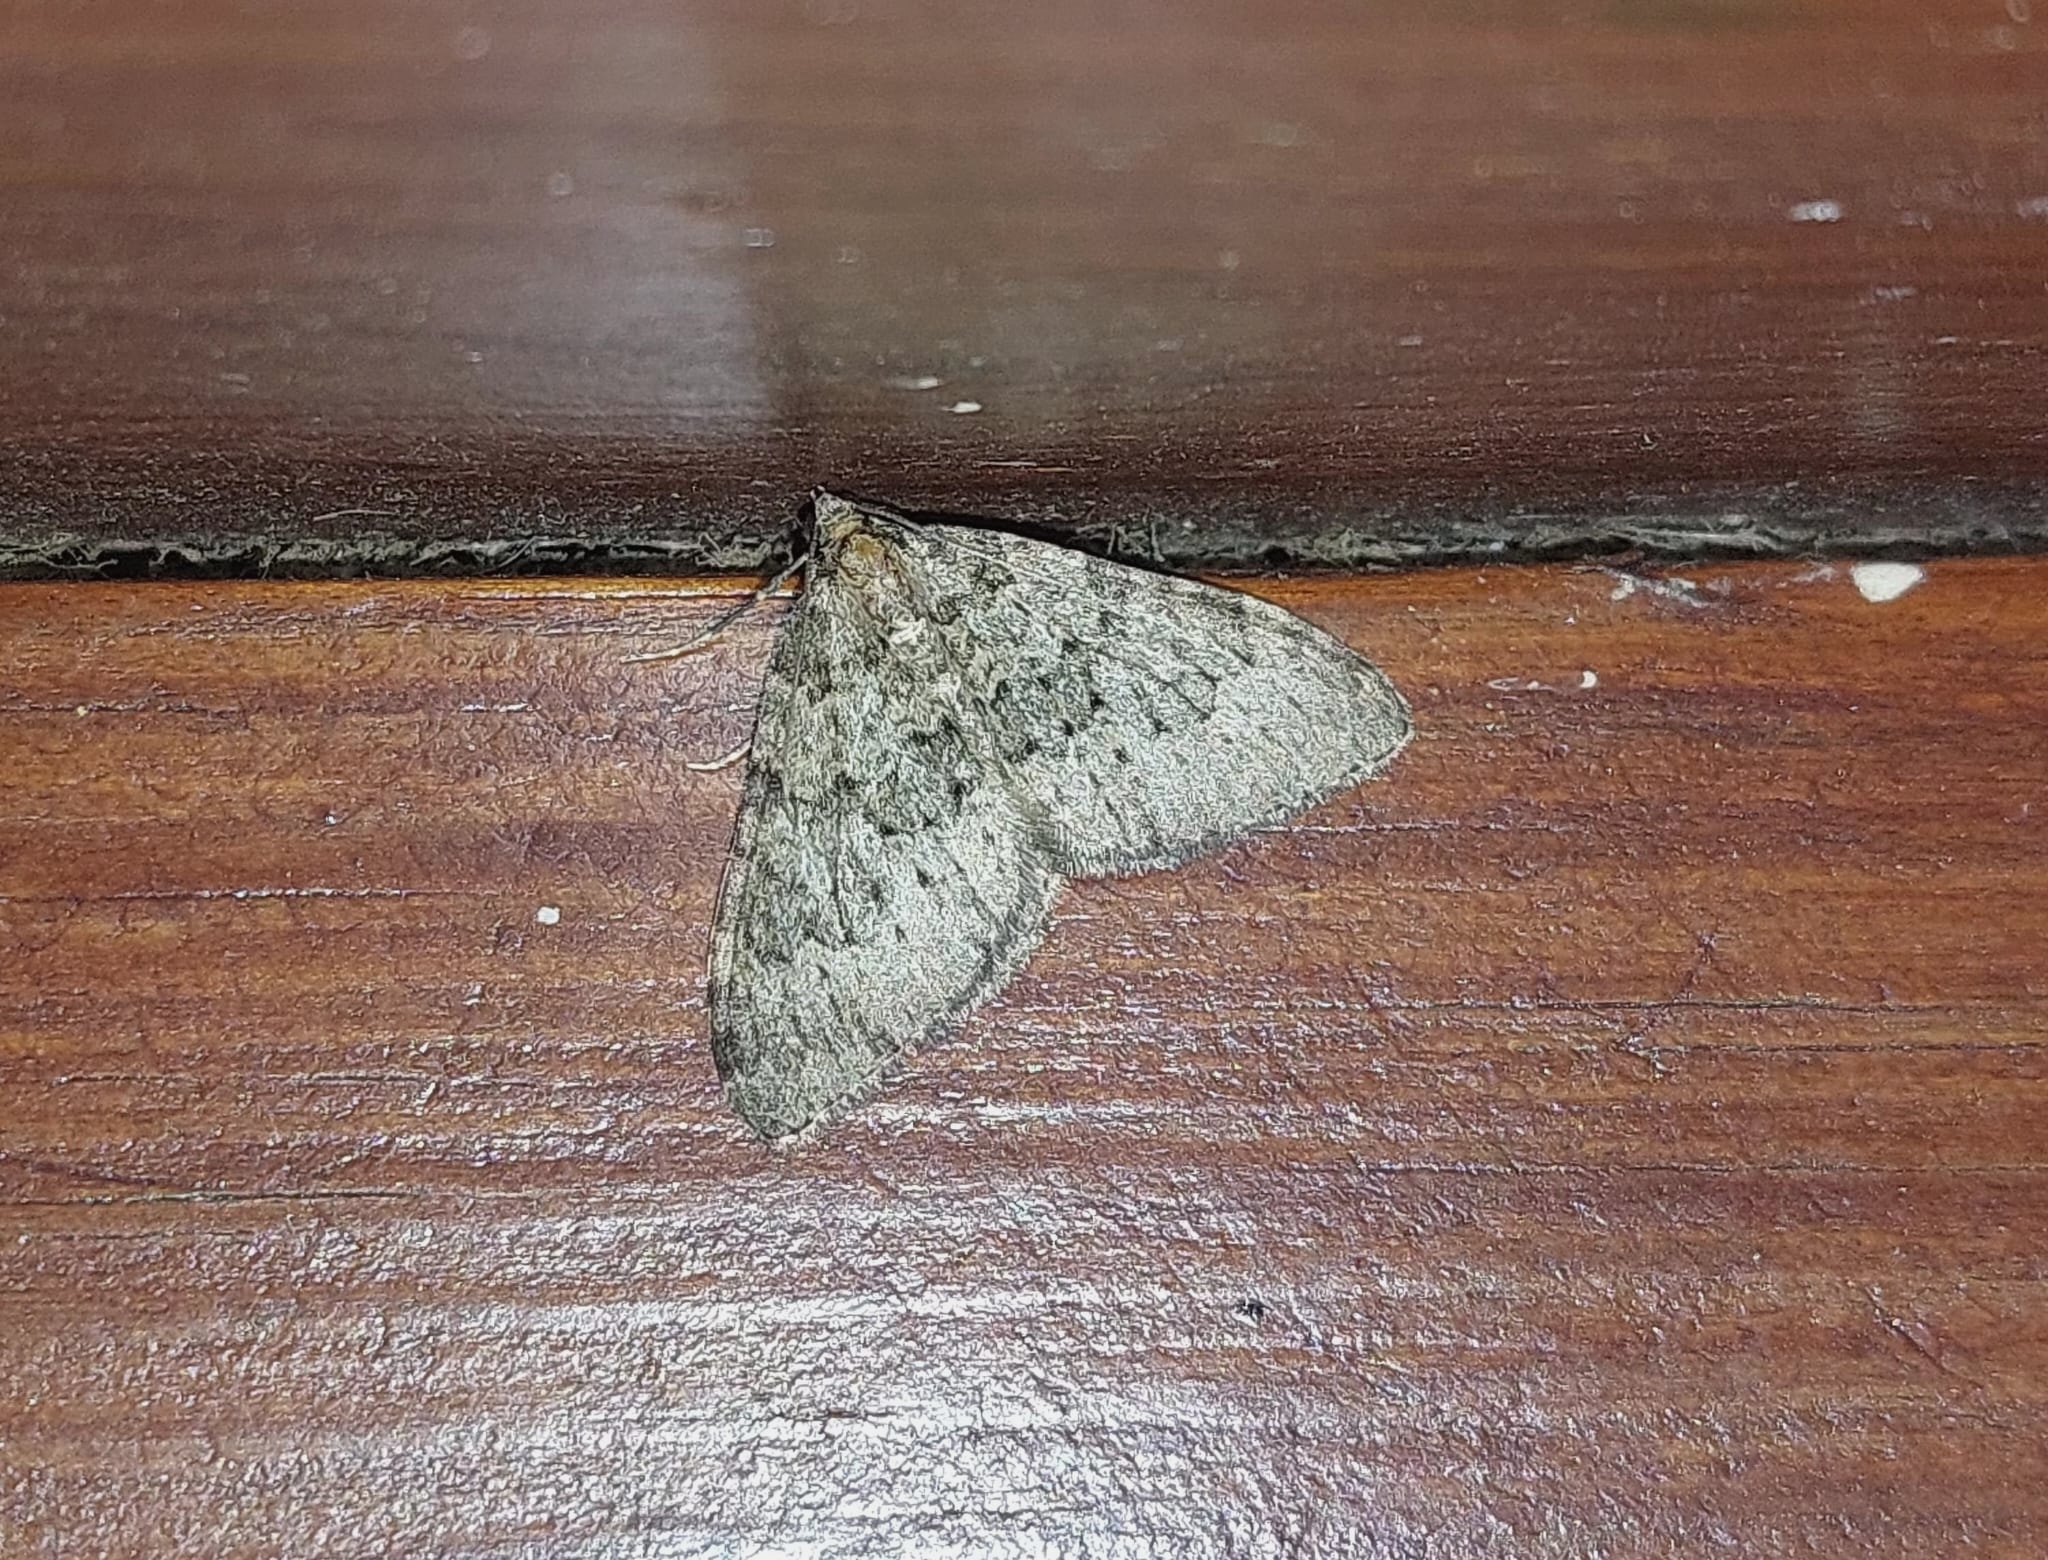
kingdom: Animalia
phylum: Arthropoda
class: Insecta
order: Lepidoptera
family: Geometridae
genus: Nebula
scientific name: Nebula ibericata
